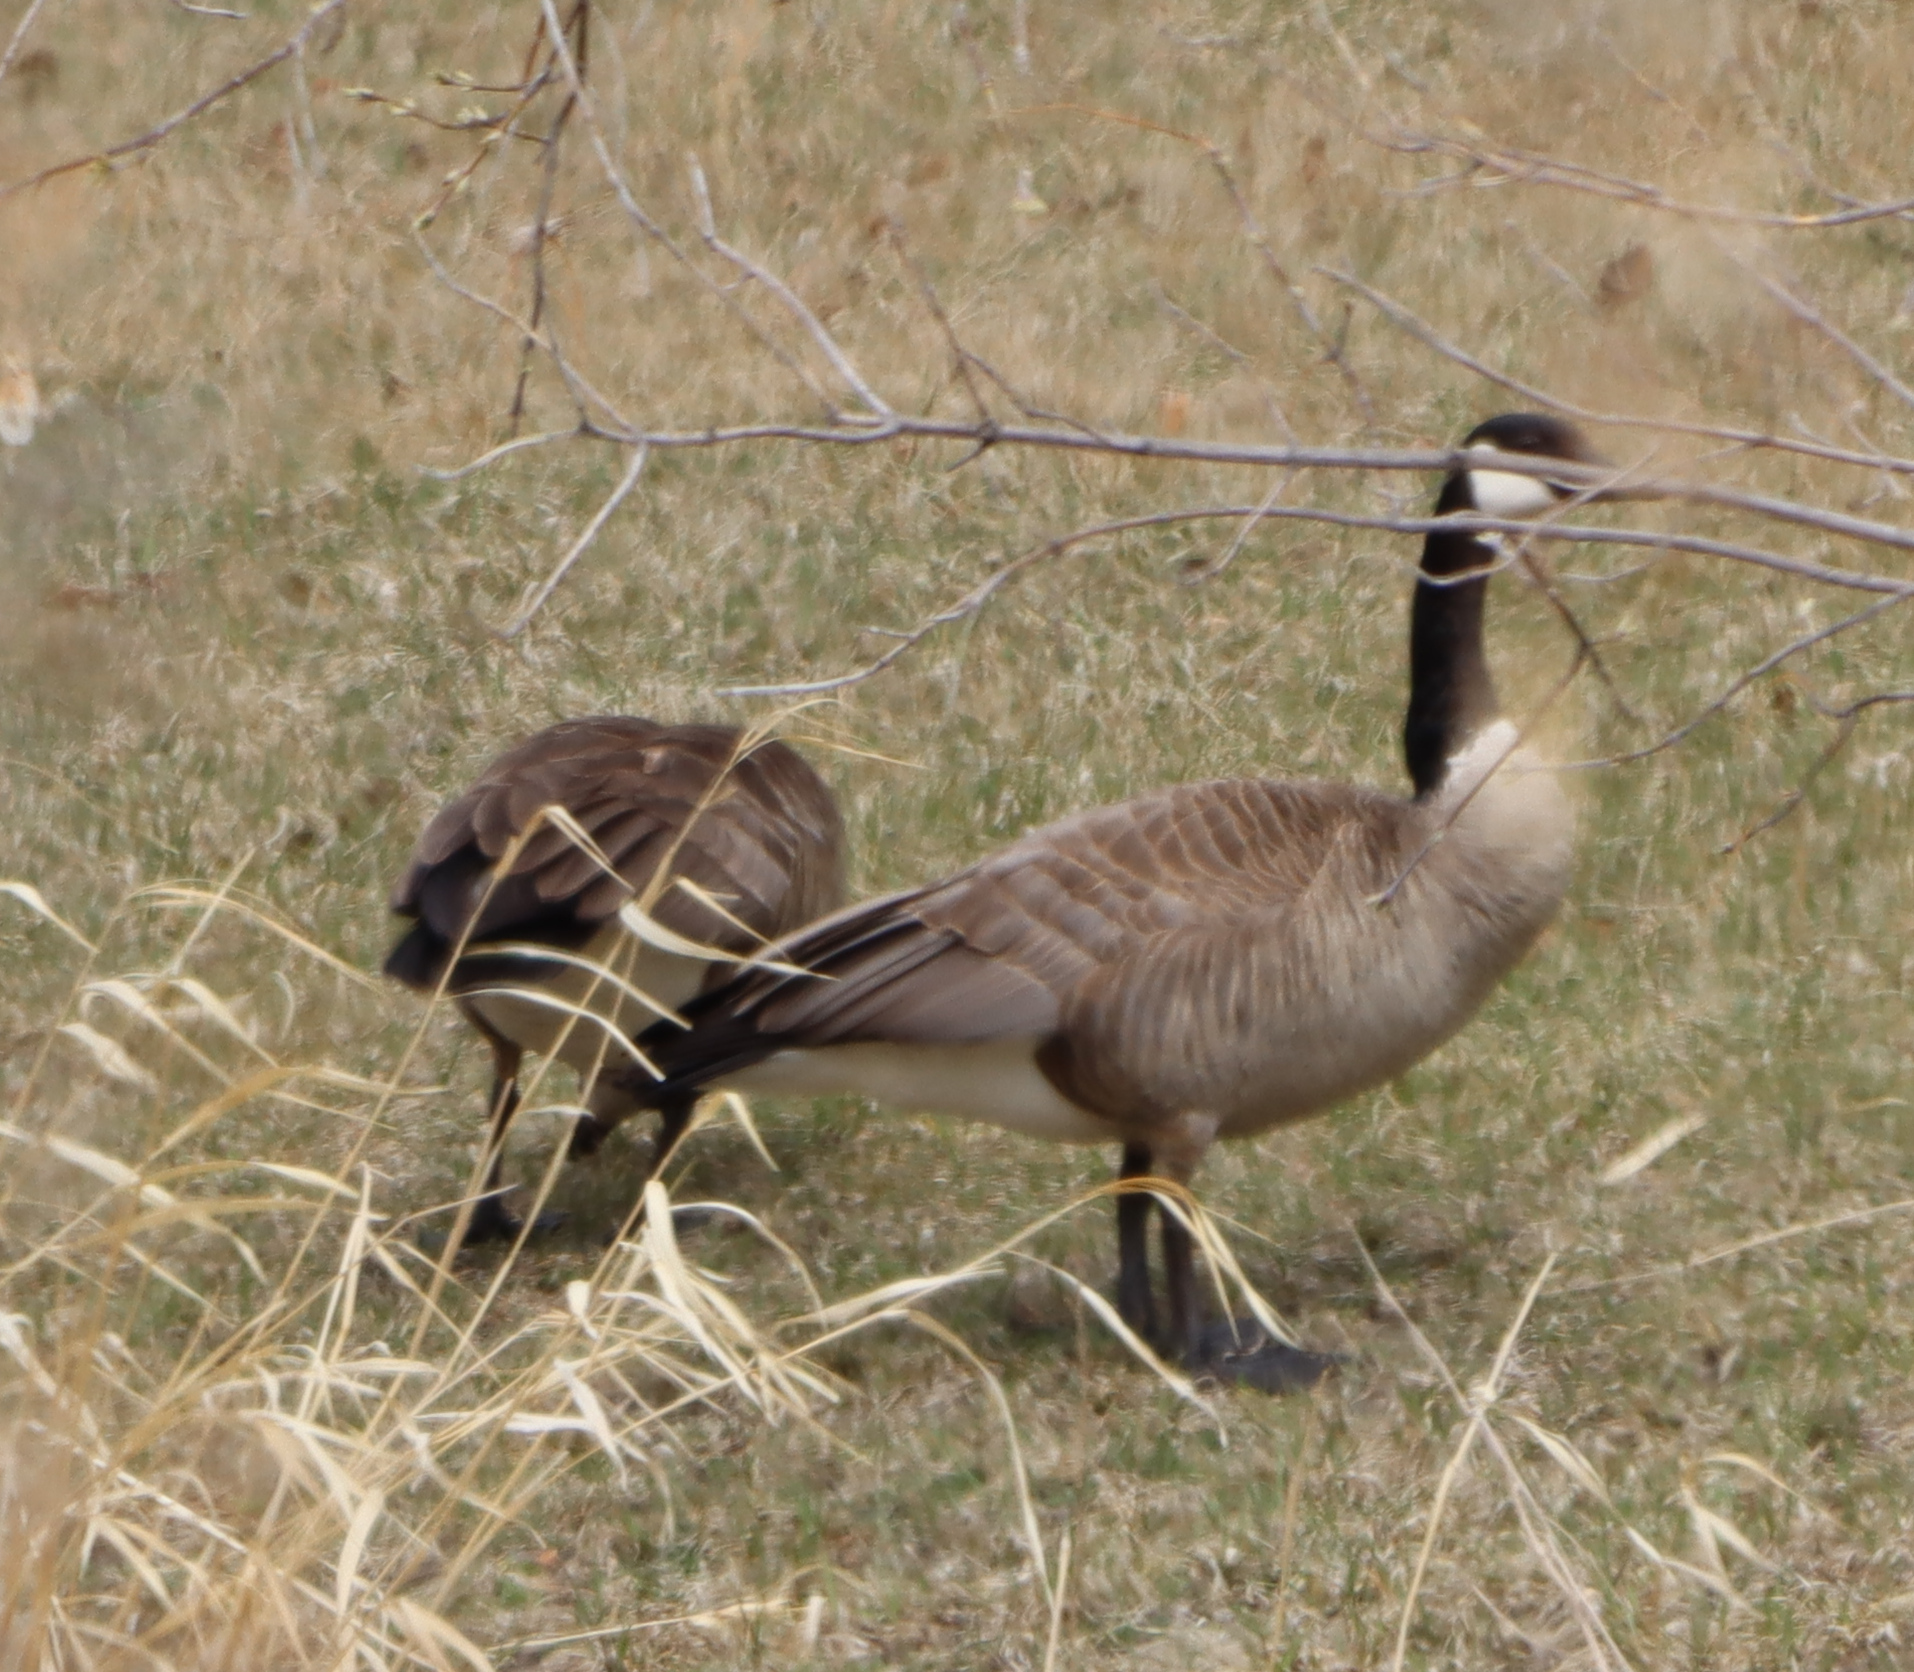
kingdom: Animalia
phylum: Chordata
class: Aves
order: Anseriformes
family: Anatidae
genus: Branta
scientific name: Branta canadensis
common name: Canada goose
